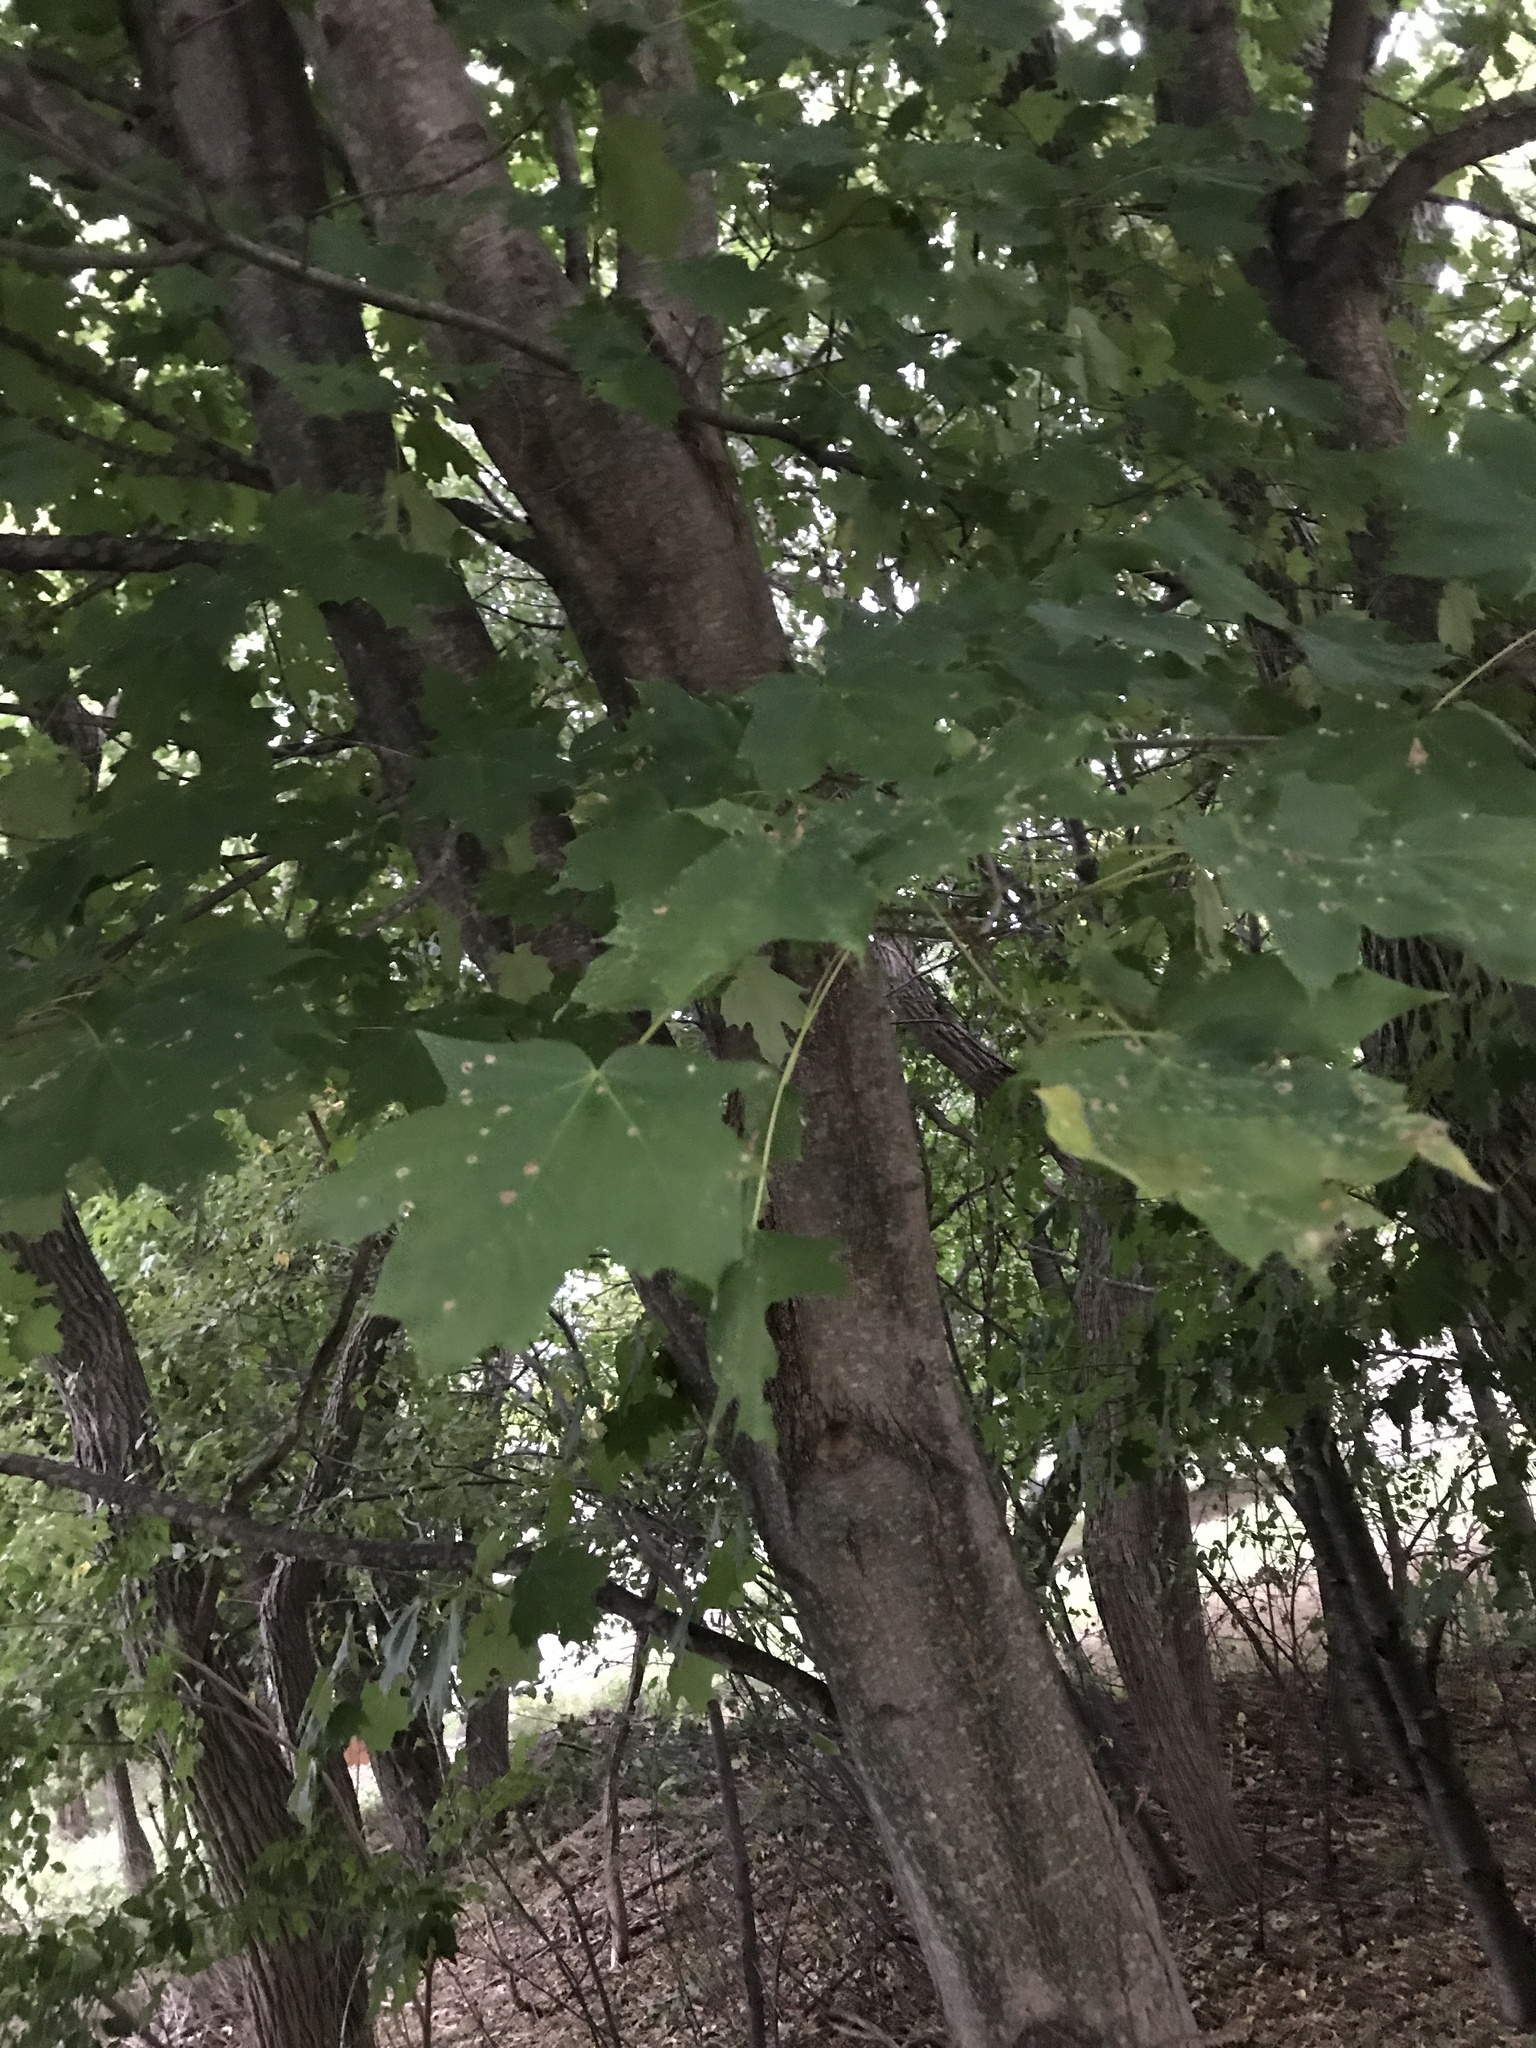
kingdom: Plantae
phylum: Tracheophyta
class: Magnoliopsida
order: Sapindales
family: Sapindaceae
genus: Acer
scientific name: Acer saccharum
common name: Sugar maple
